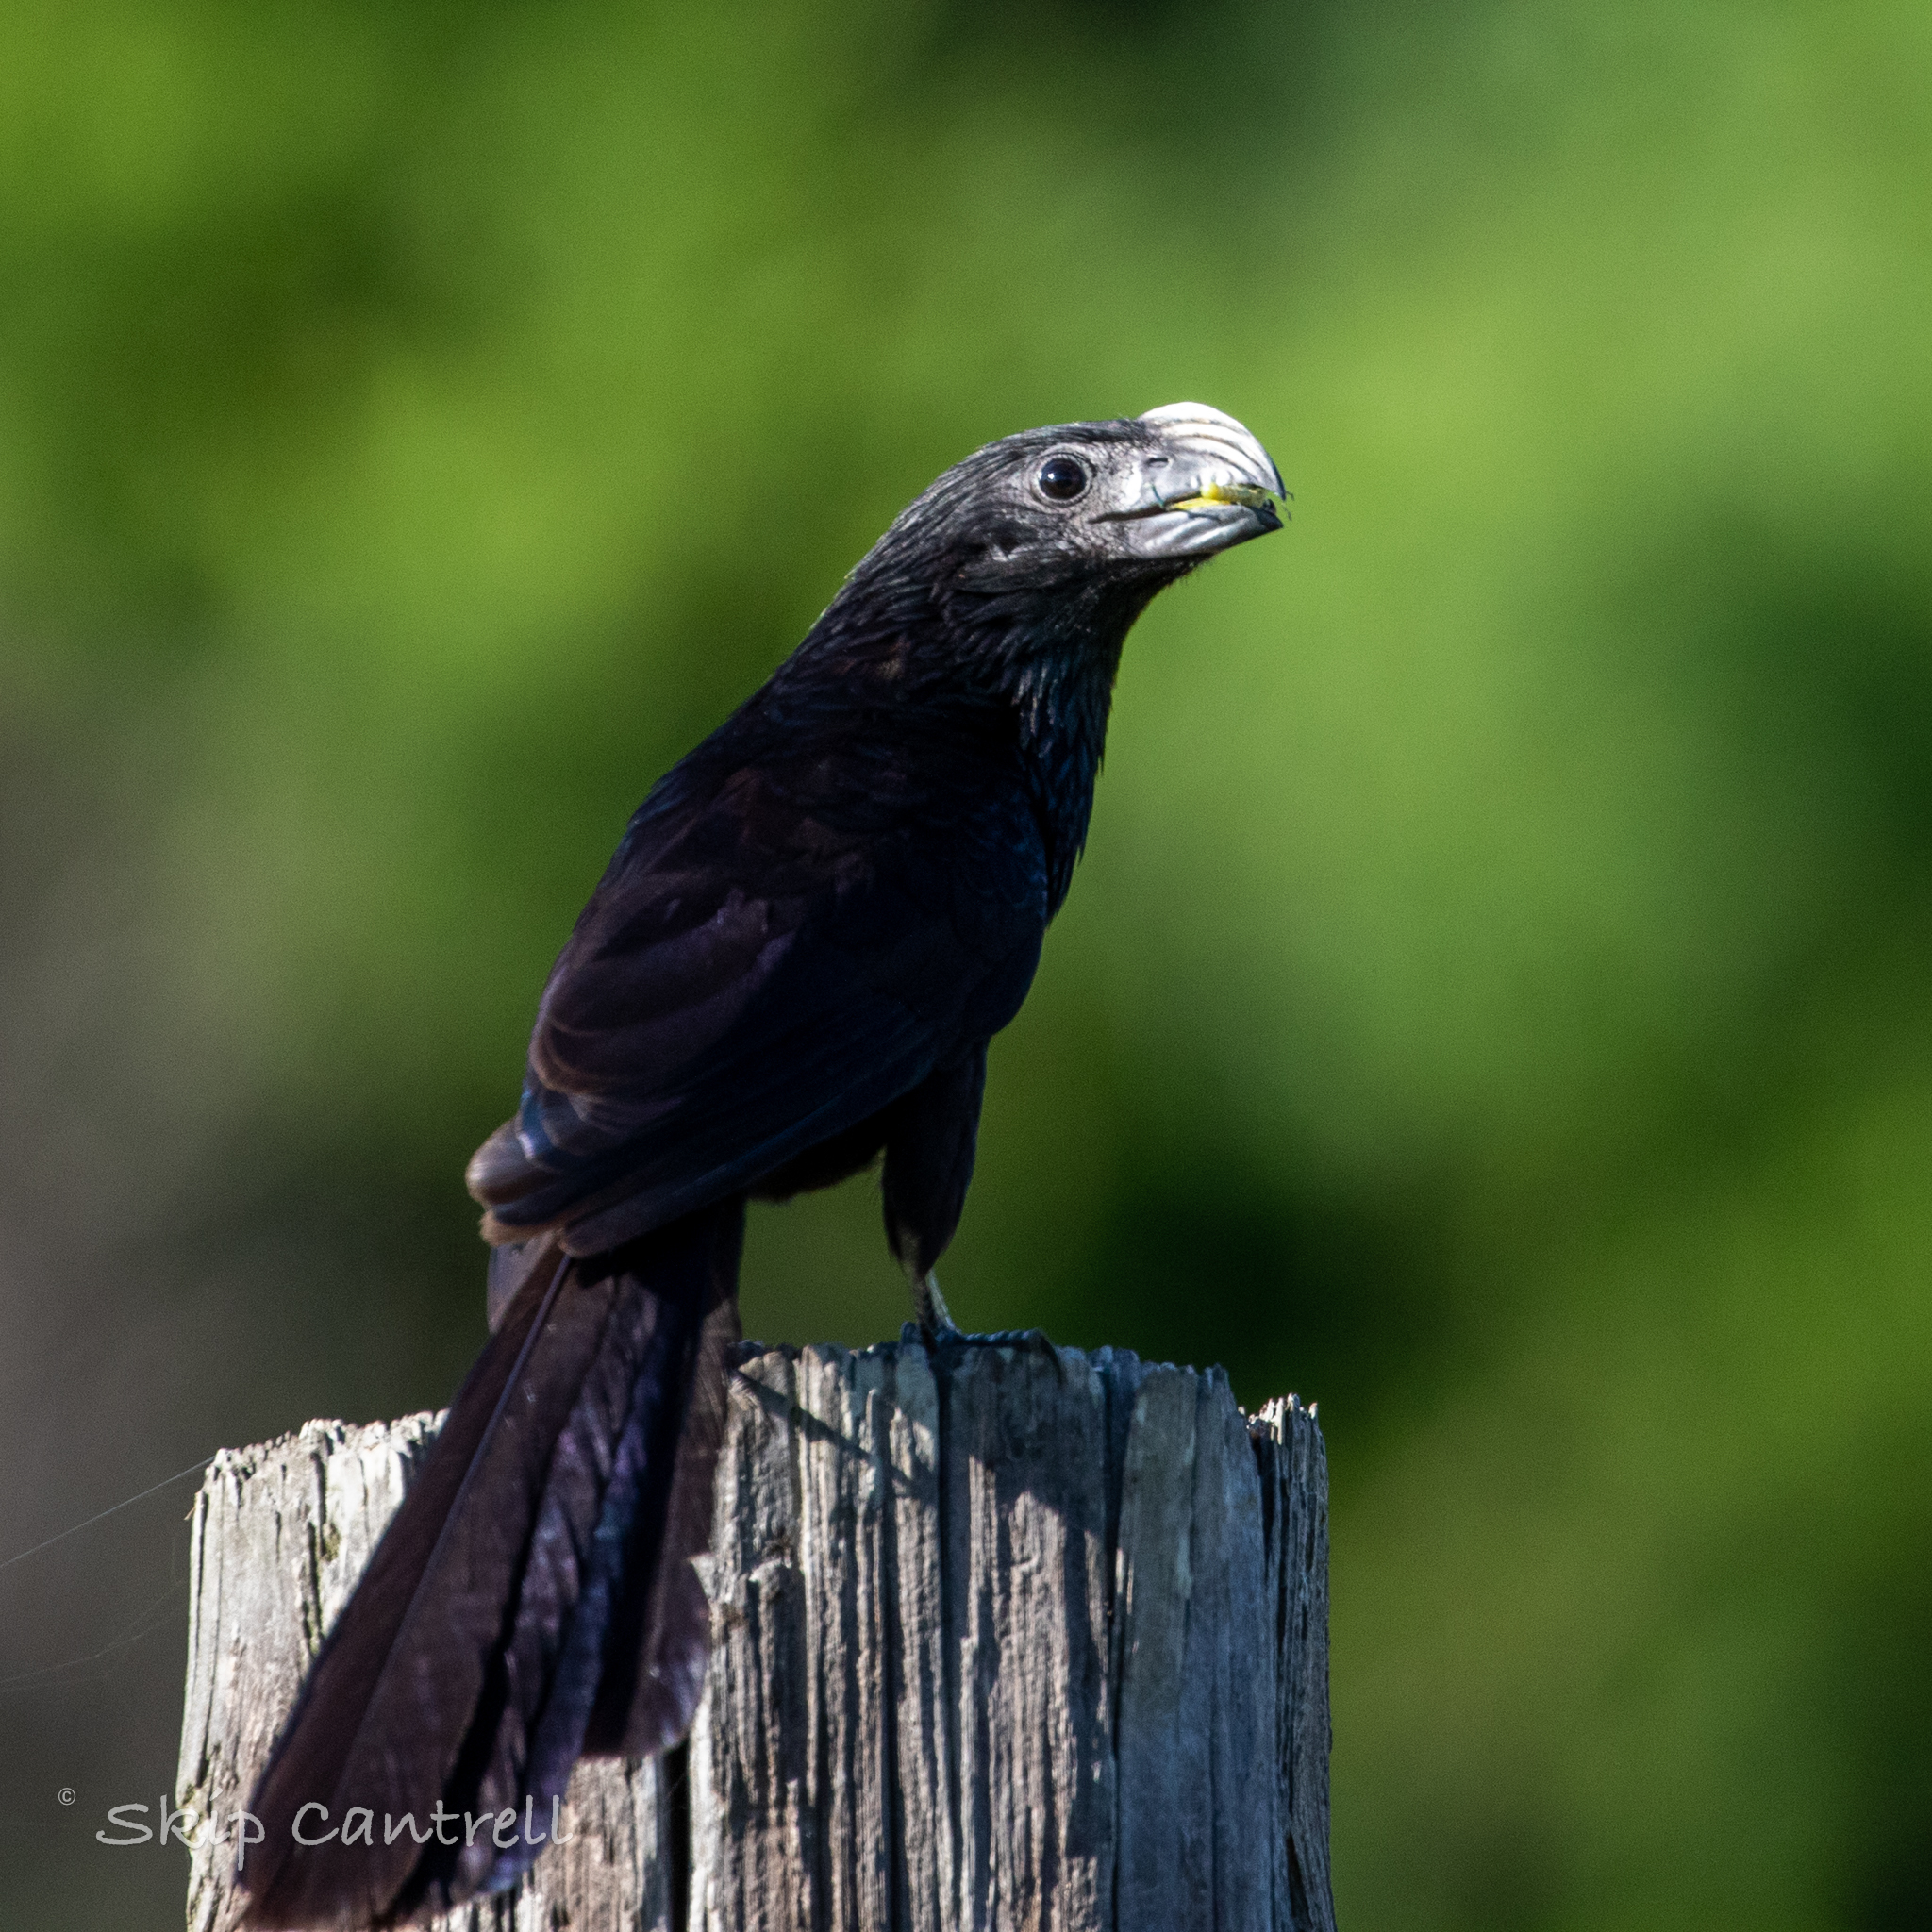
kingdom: Animalia
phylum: Chordata
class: Aves
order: Cuculiformes
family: Cuculidae
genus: Crotophaga
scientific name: Crotophaga sulcirostris
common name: Groove-billed ani
